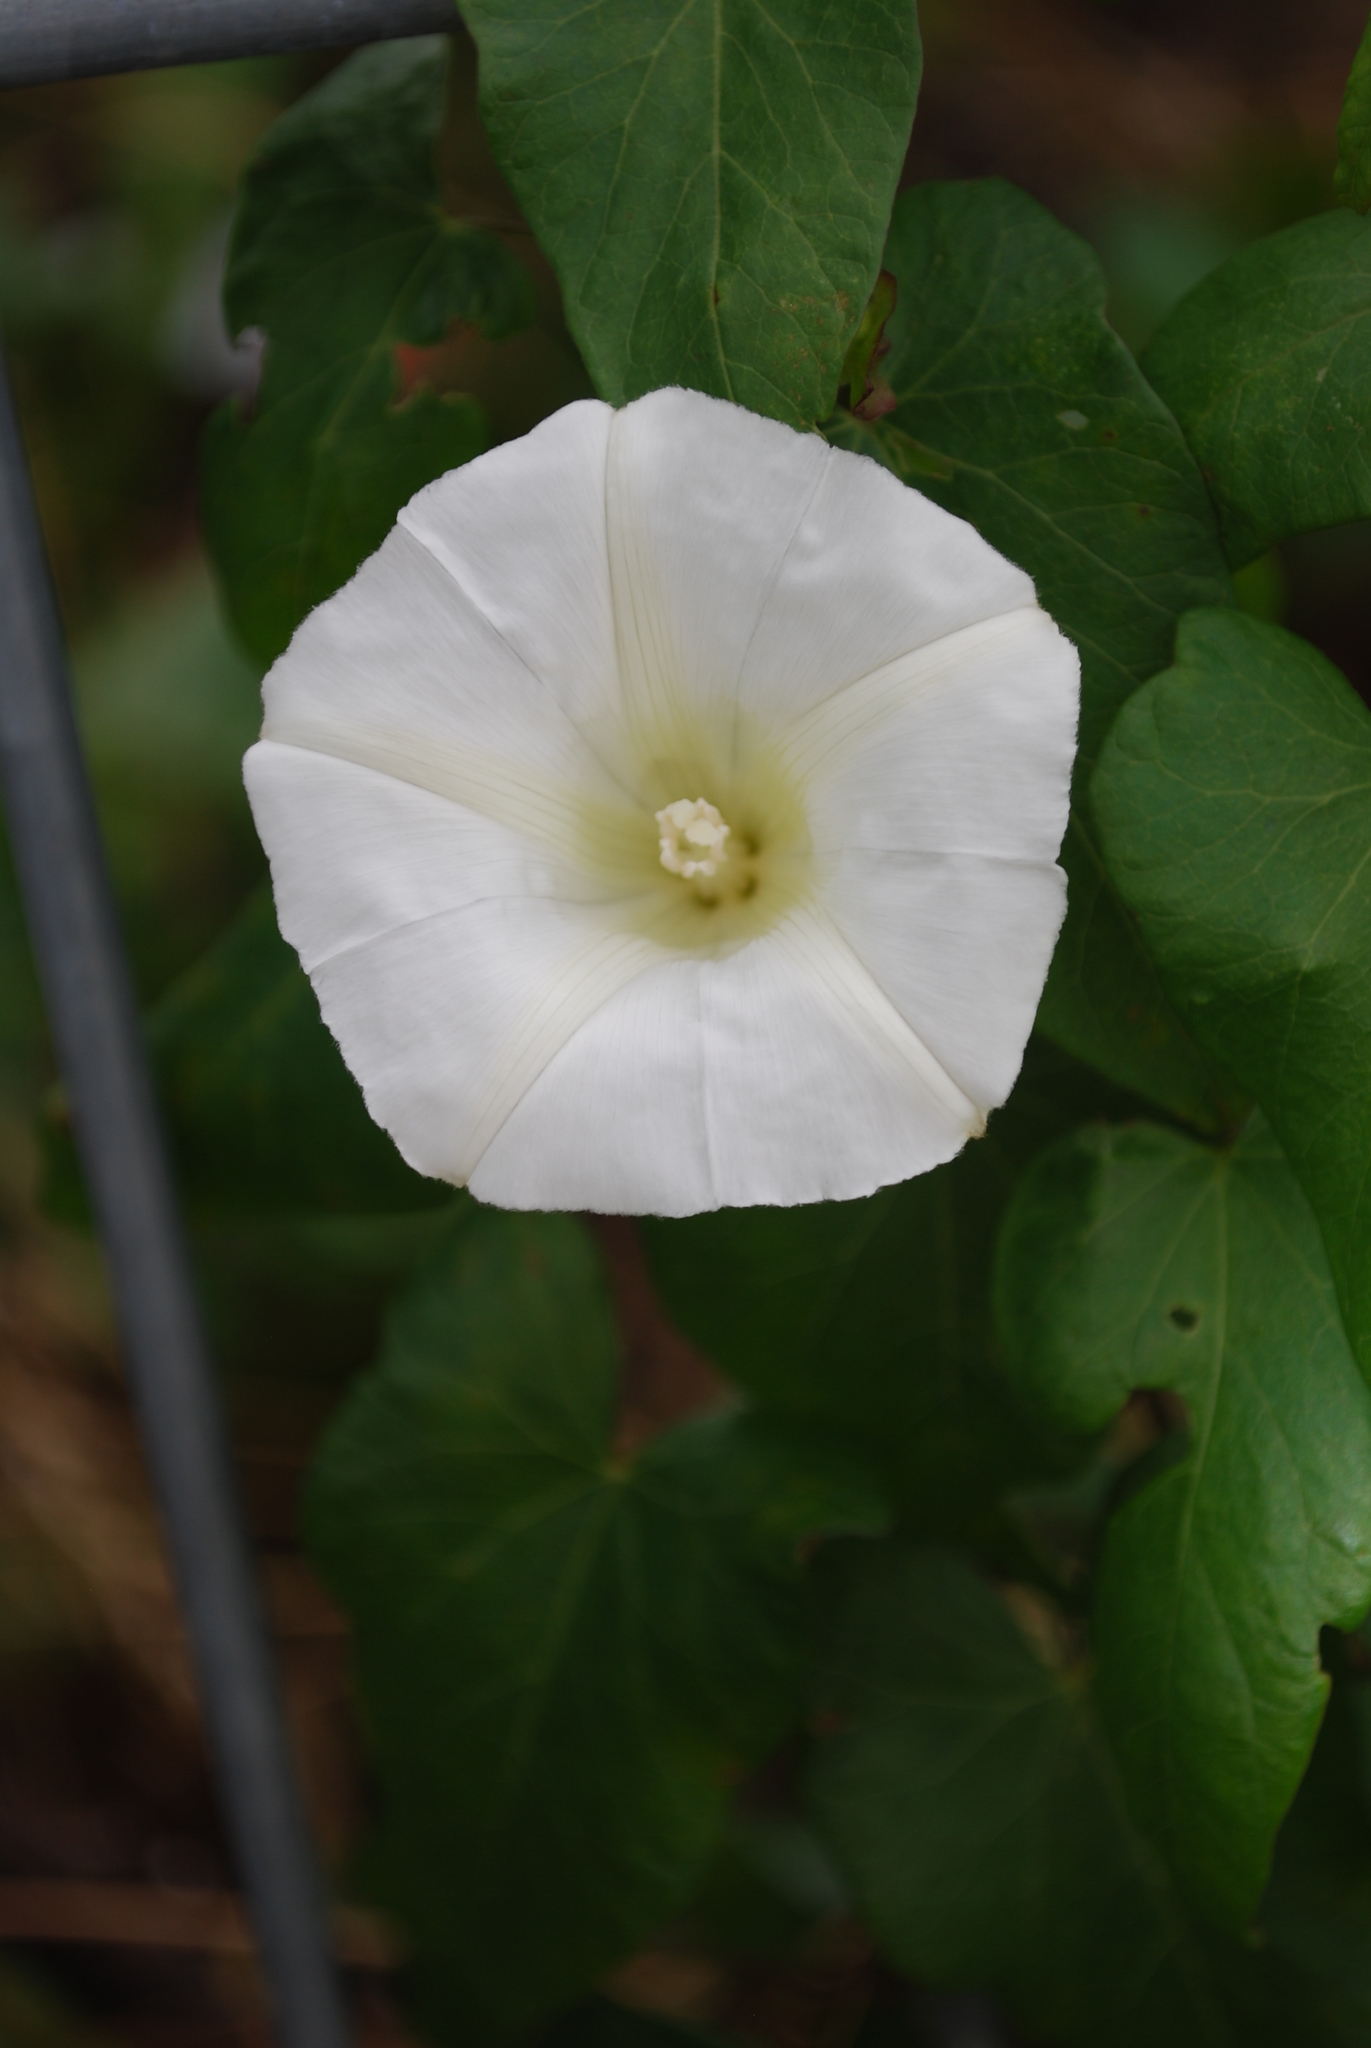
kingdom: Plantae
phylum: Tracheophyta
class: Magnoliopsida
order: Solanales
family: Convolvulaceae
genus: Calystegia
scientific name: Calystegia sepium
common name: Hedge bindweed
